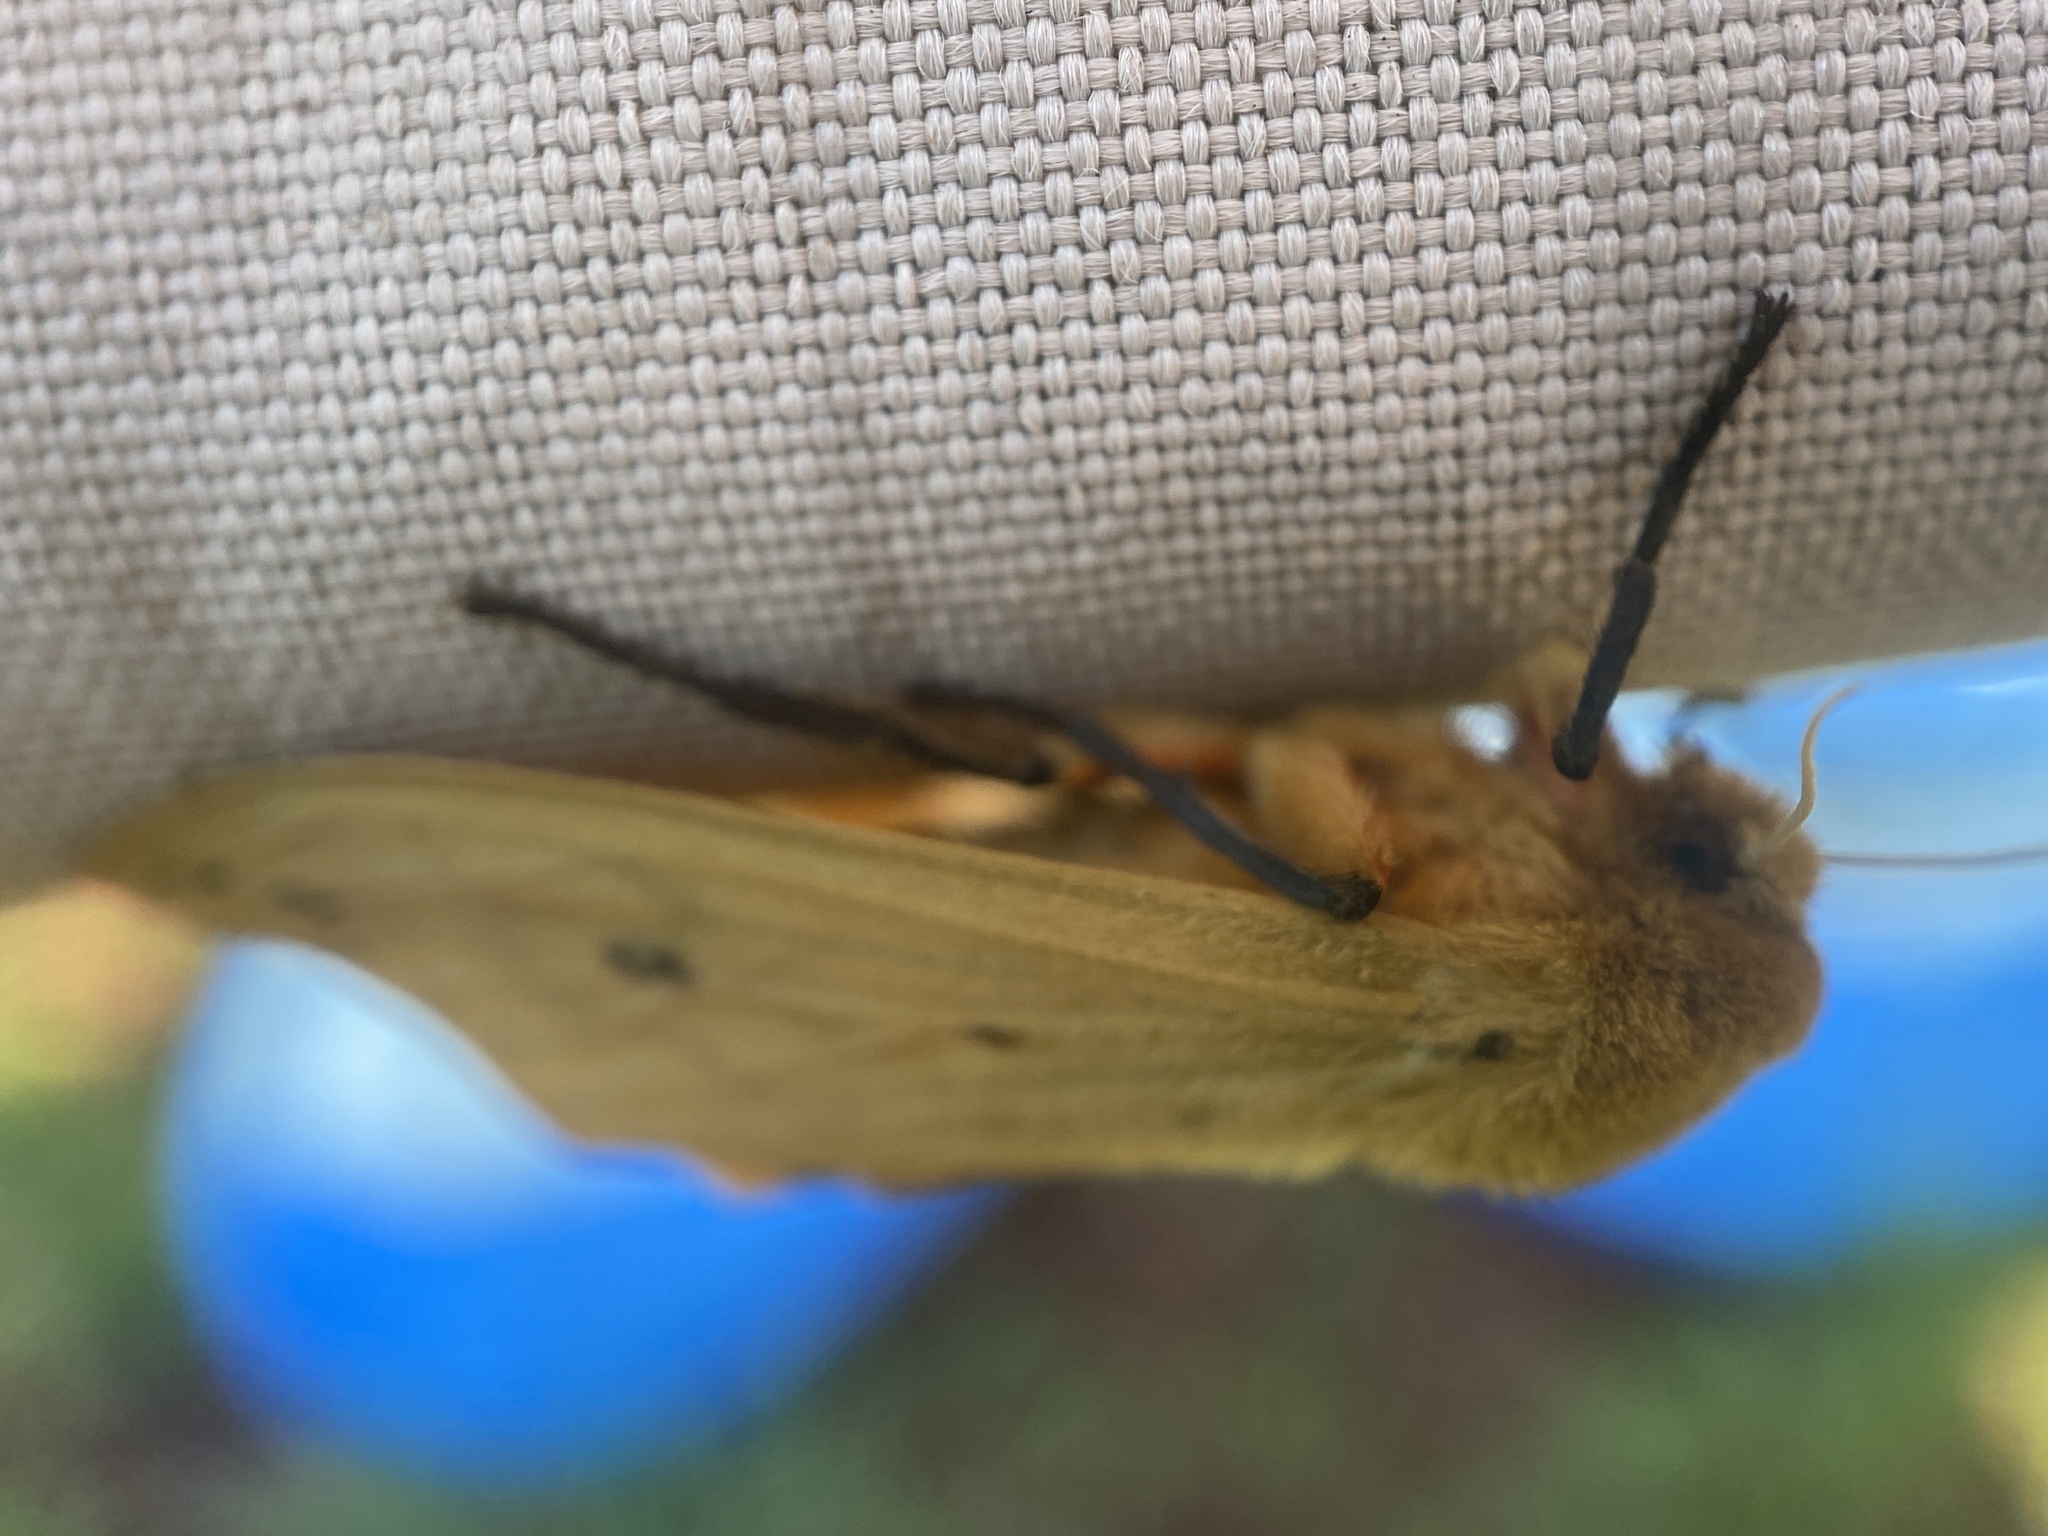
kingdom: Animalia
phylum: Arthropoda
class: Insecta
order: Lepidoptera
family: Erebidae
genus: Pyrrharctia
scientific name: Pyrrharctia isabella
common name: Isabella tiger moth
